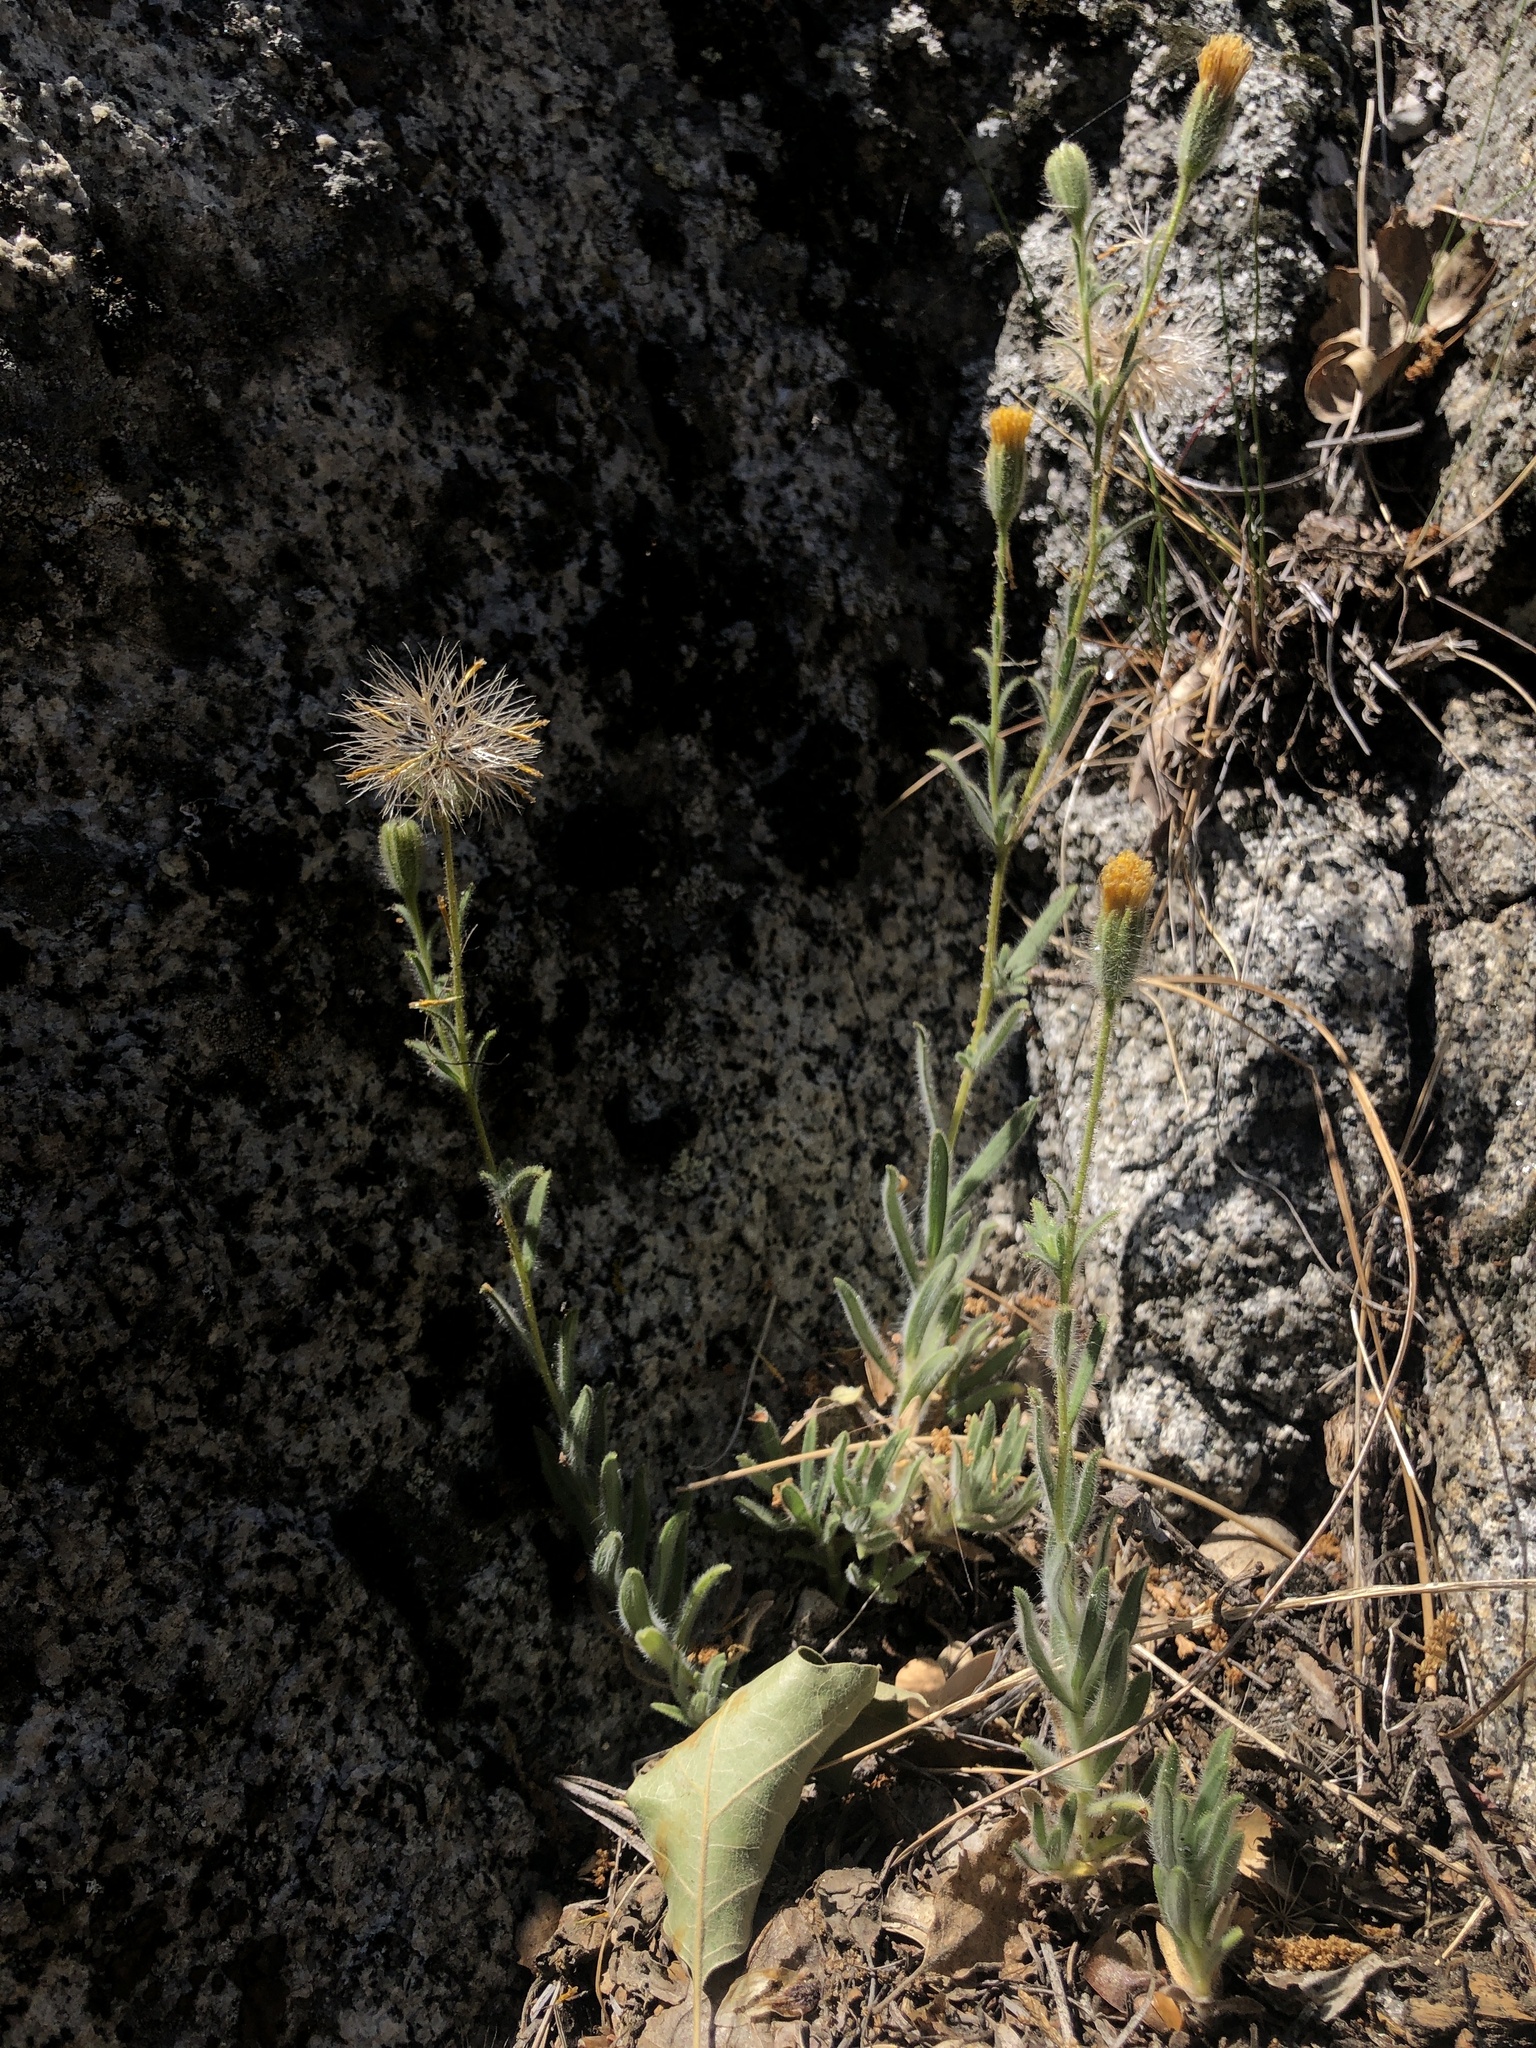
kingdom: Plantae
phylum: Tracheophyta
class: Magnoliopsida
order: Asterales
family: Asteraceae
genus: Carlquistia
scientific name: Carlquistia muirii
